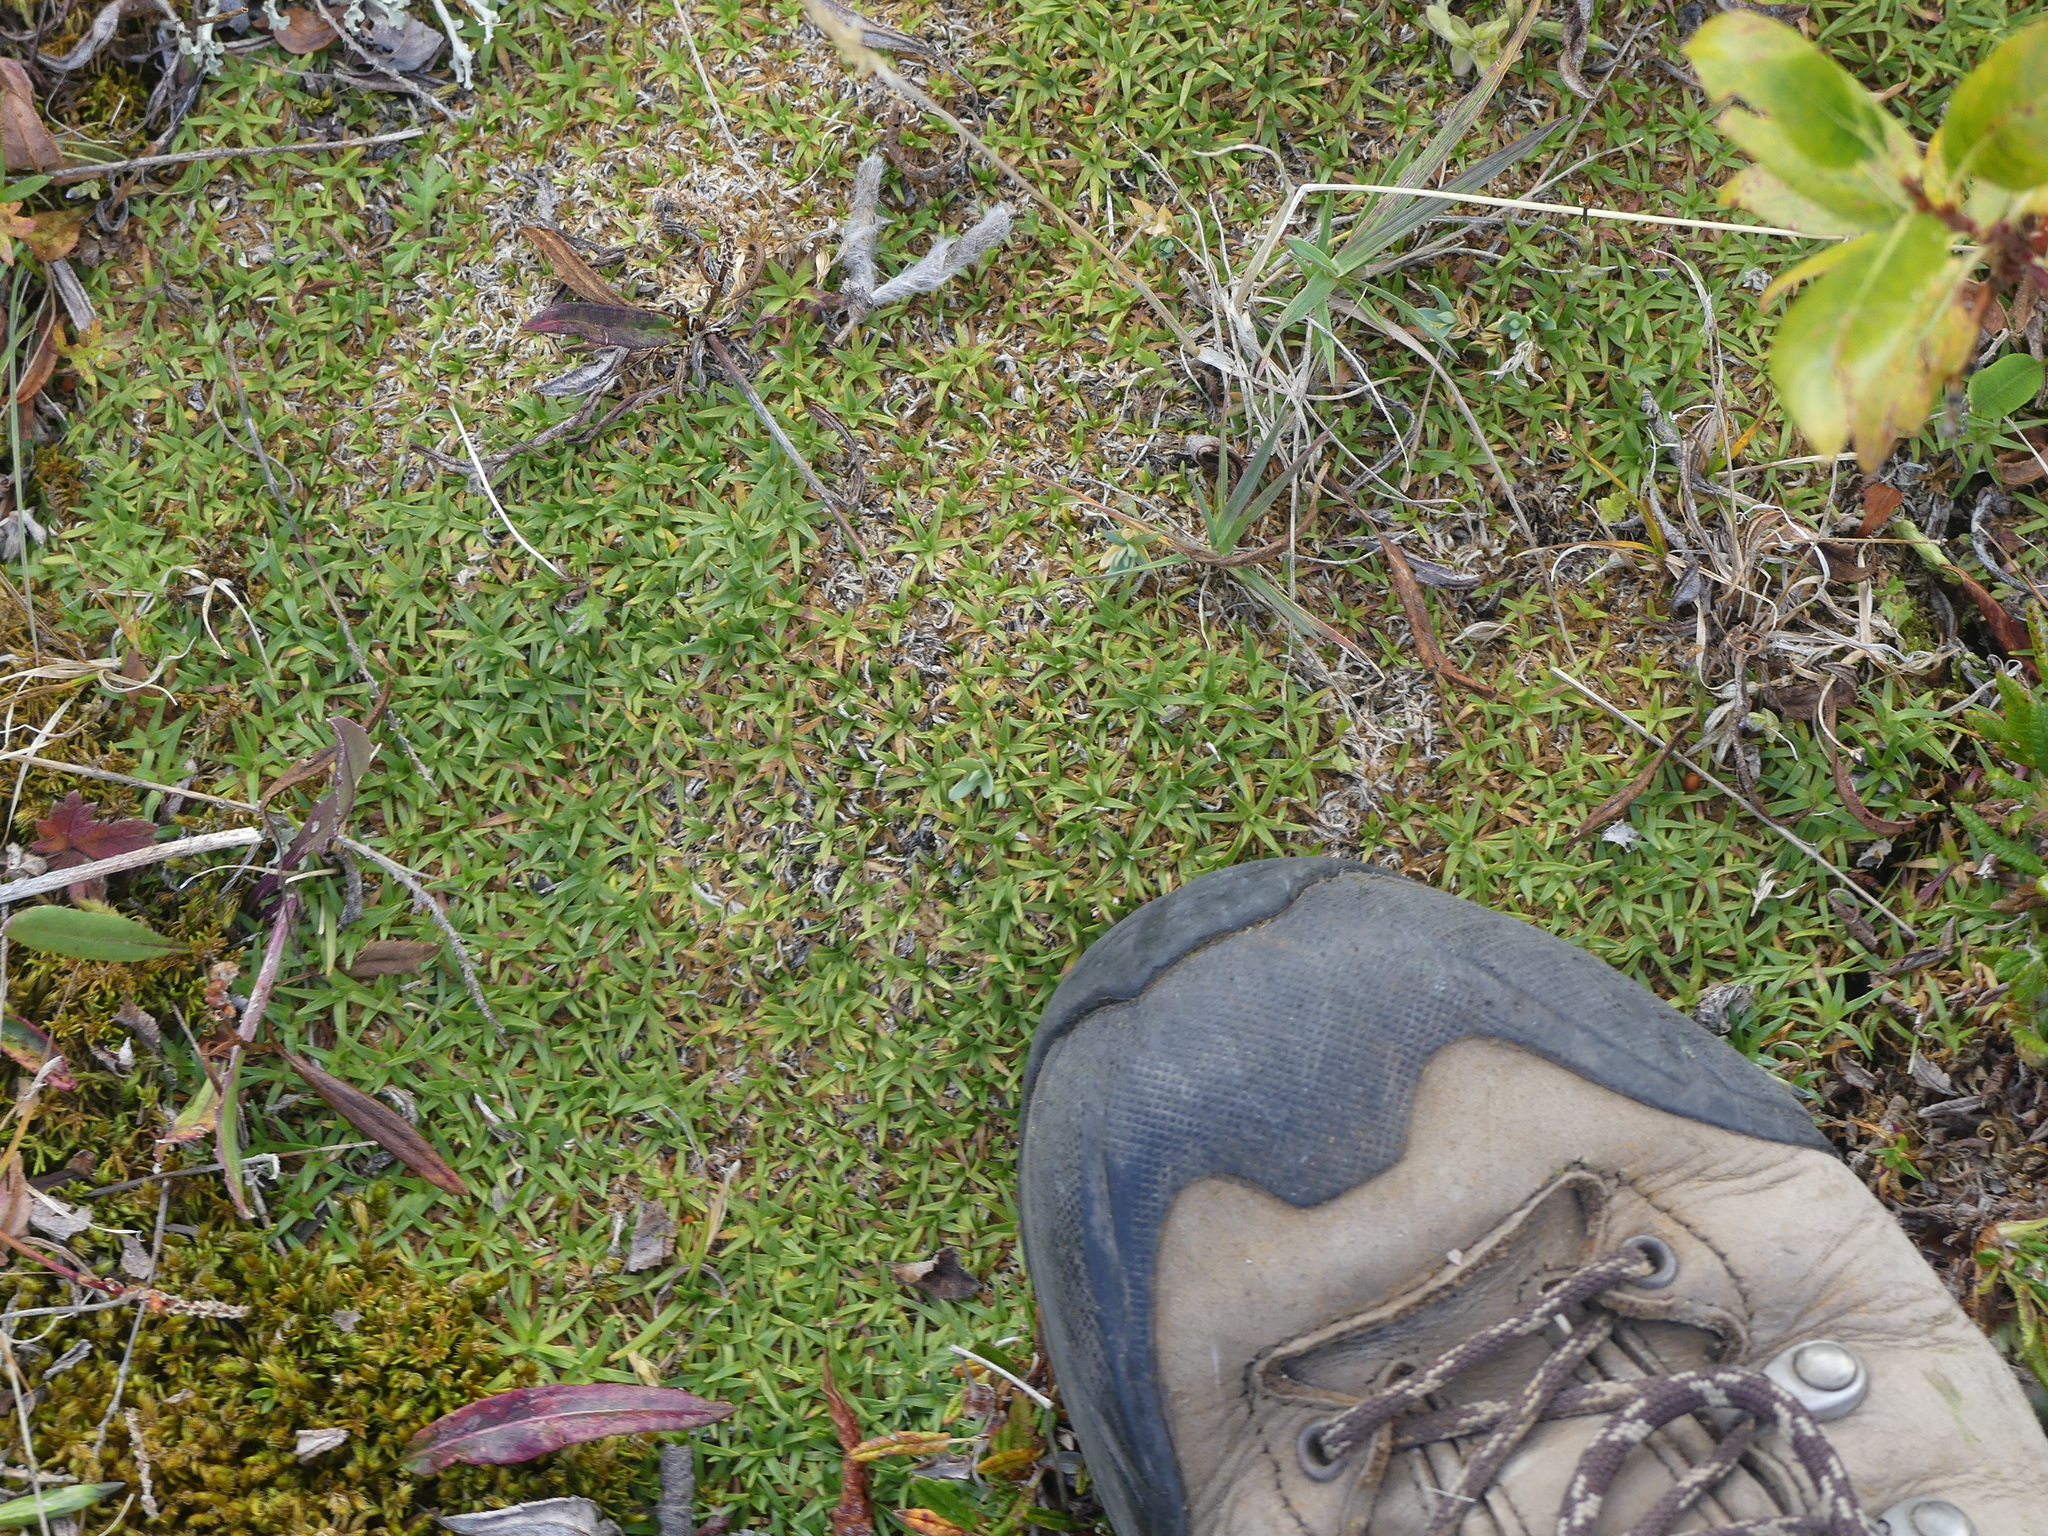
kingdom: Plantae
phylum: Tracheophyta
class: Magnoliopsida
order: Caryophyllales
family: Caryophyllaceae
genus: Silene
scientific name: Silene acaulis
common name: Moss campion
